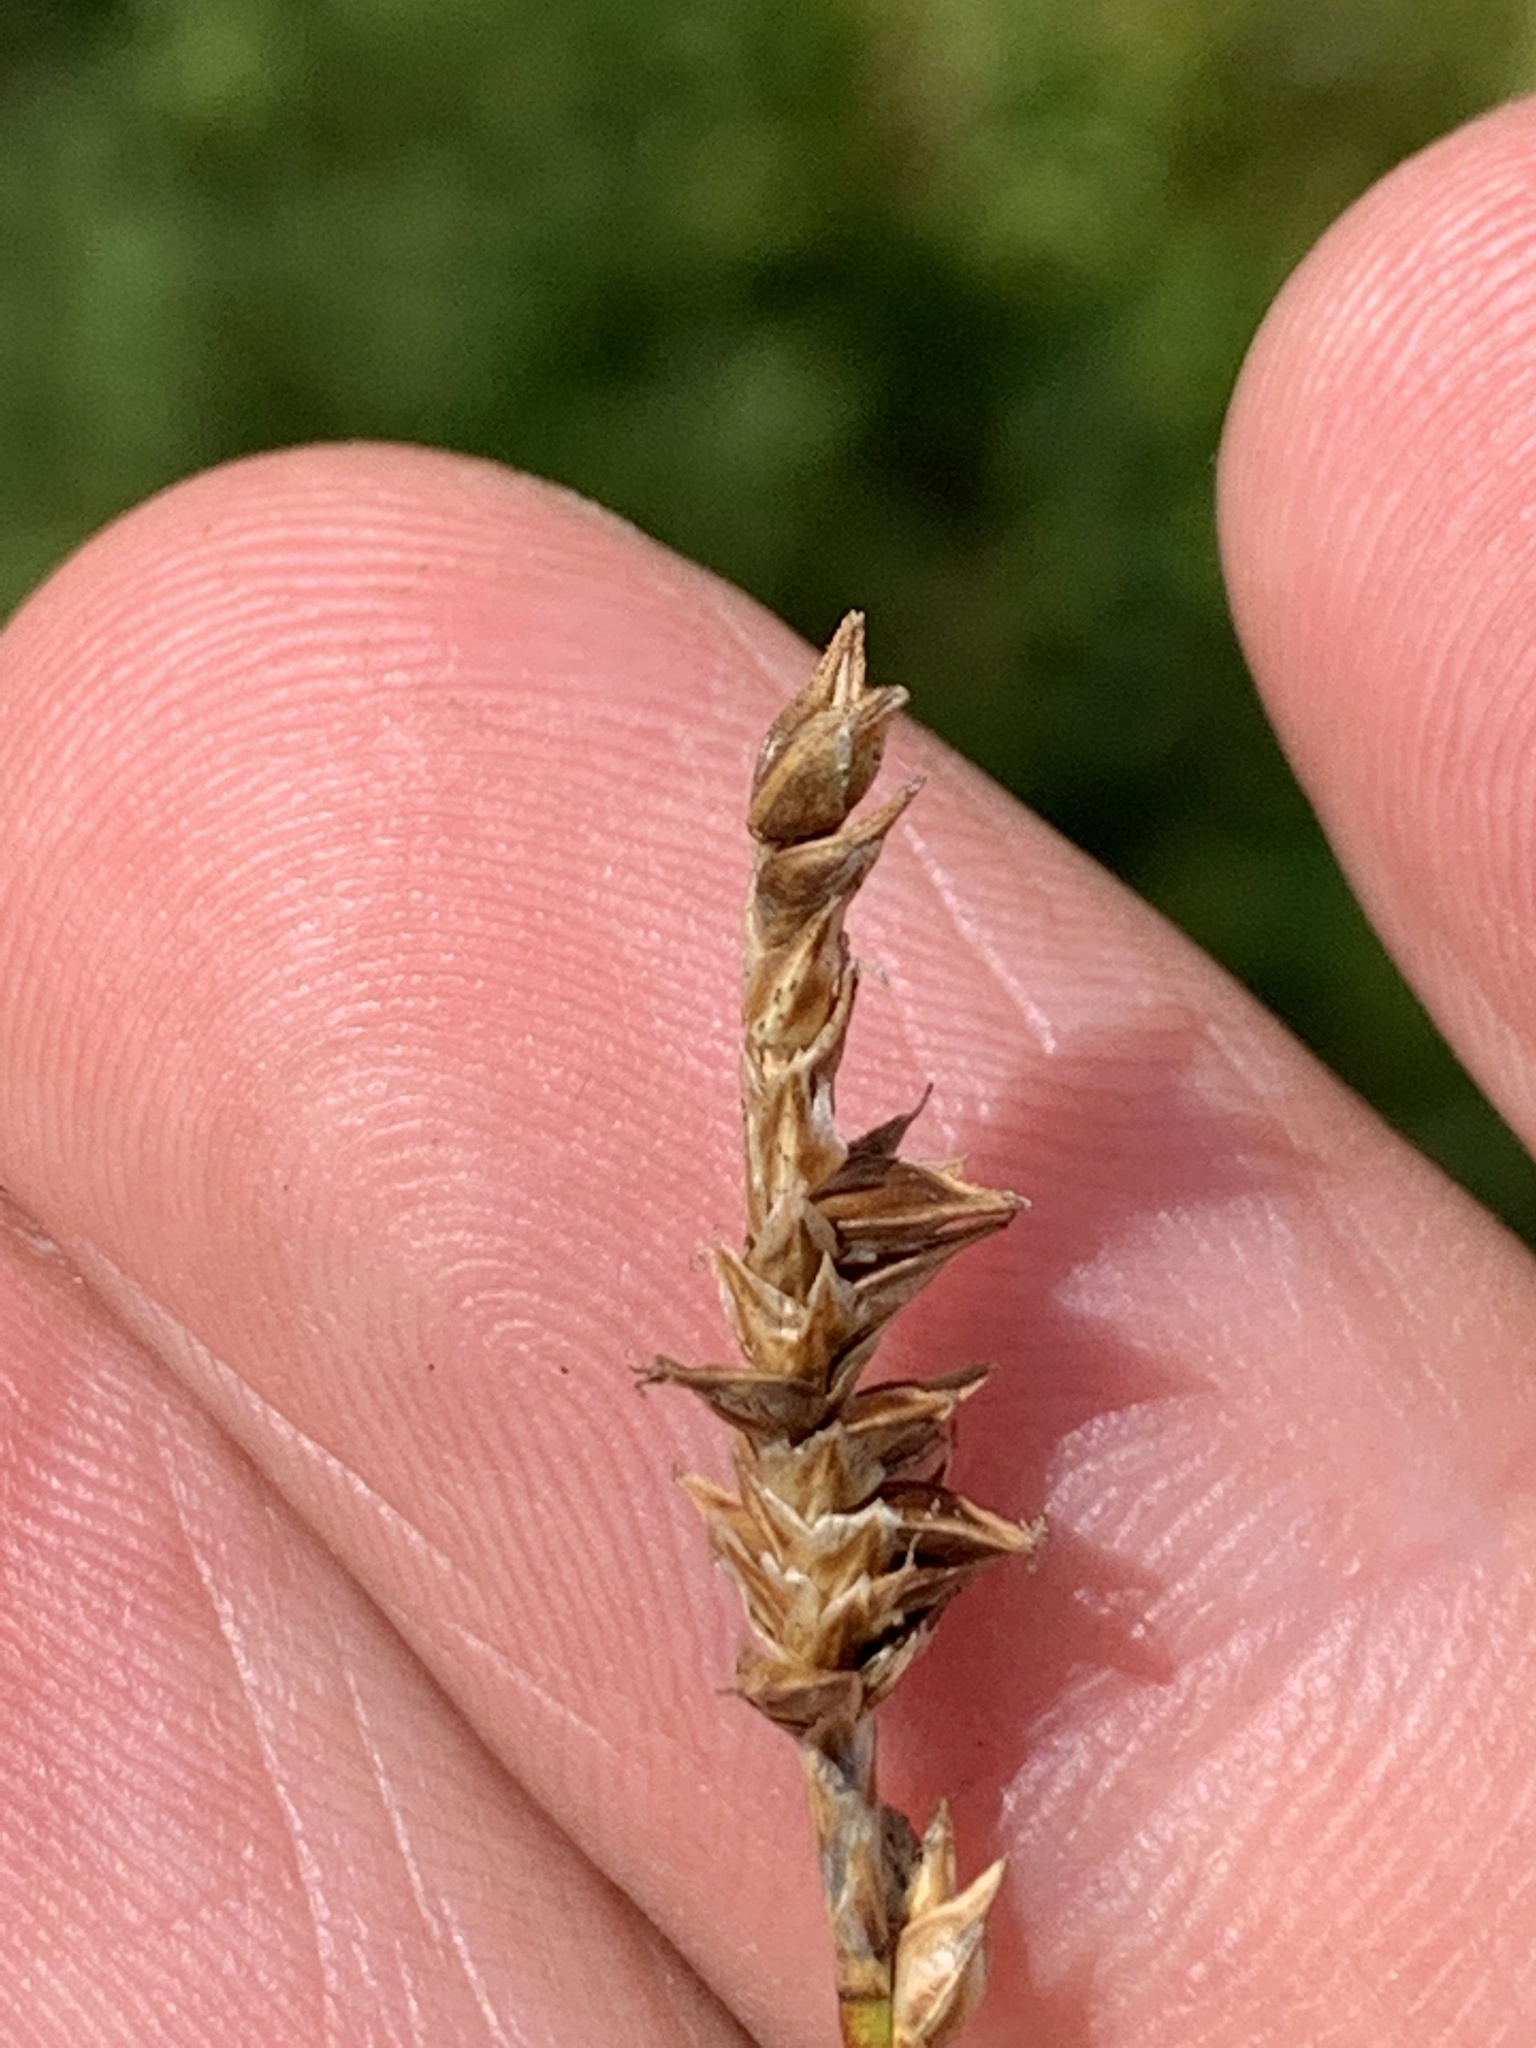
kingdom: Plantae
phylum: Tracheophyta
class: Liliopsida
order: Poales
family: Cyperaceae
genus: Carex
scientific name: Carex exilis
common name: Coastal sedge
